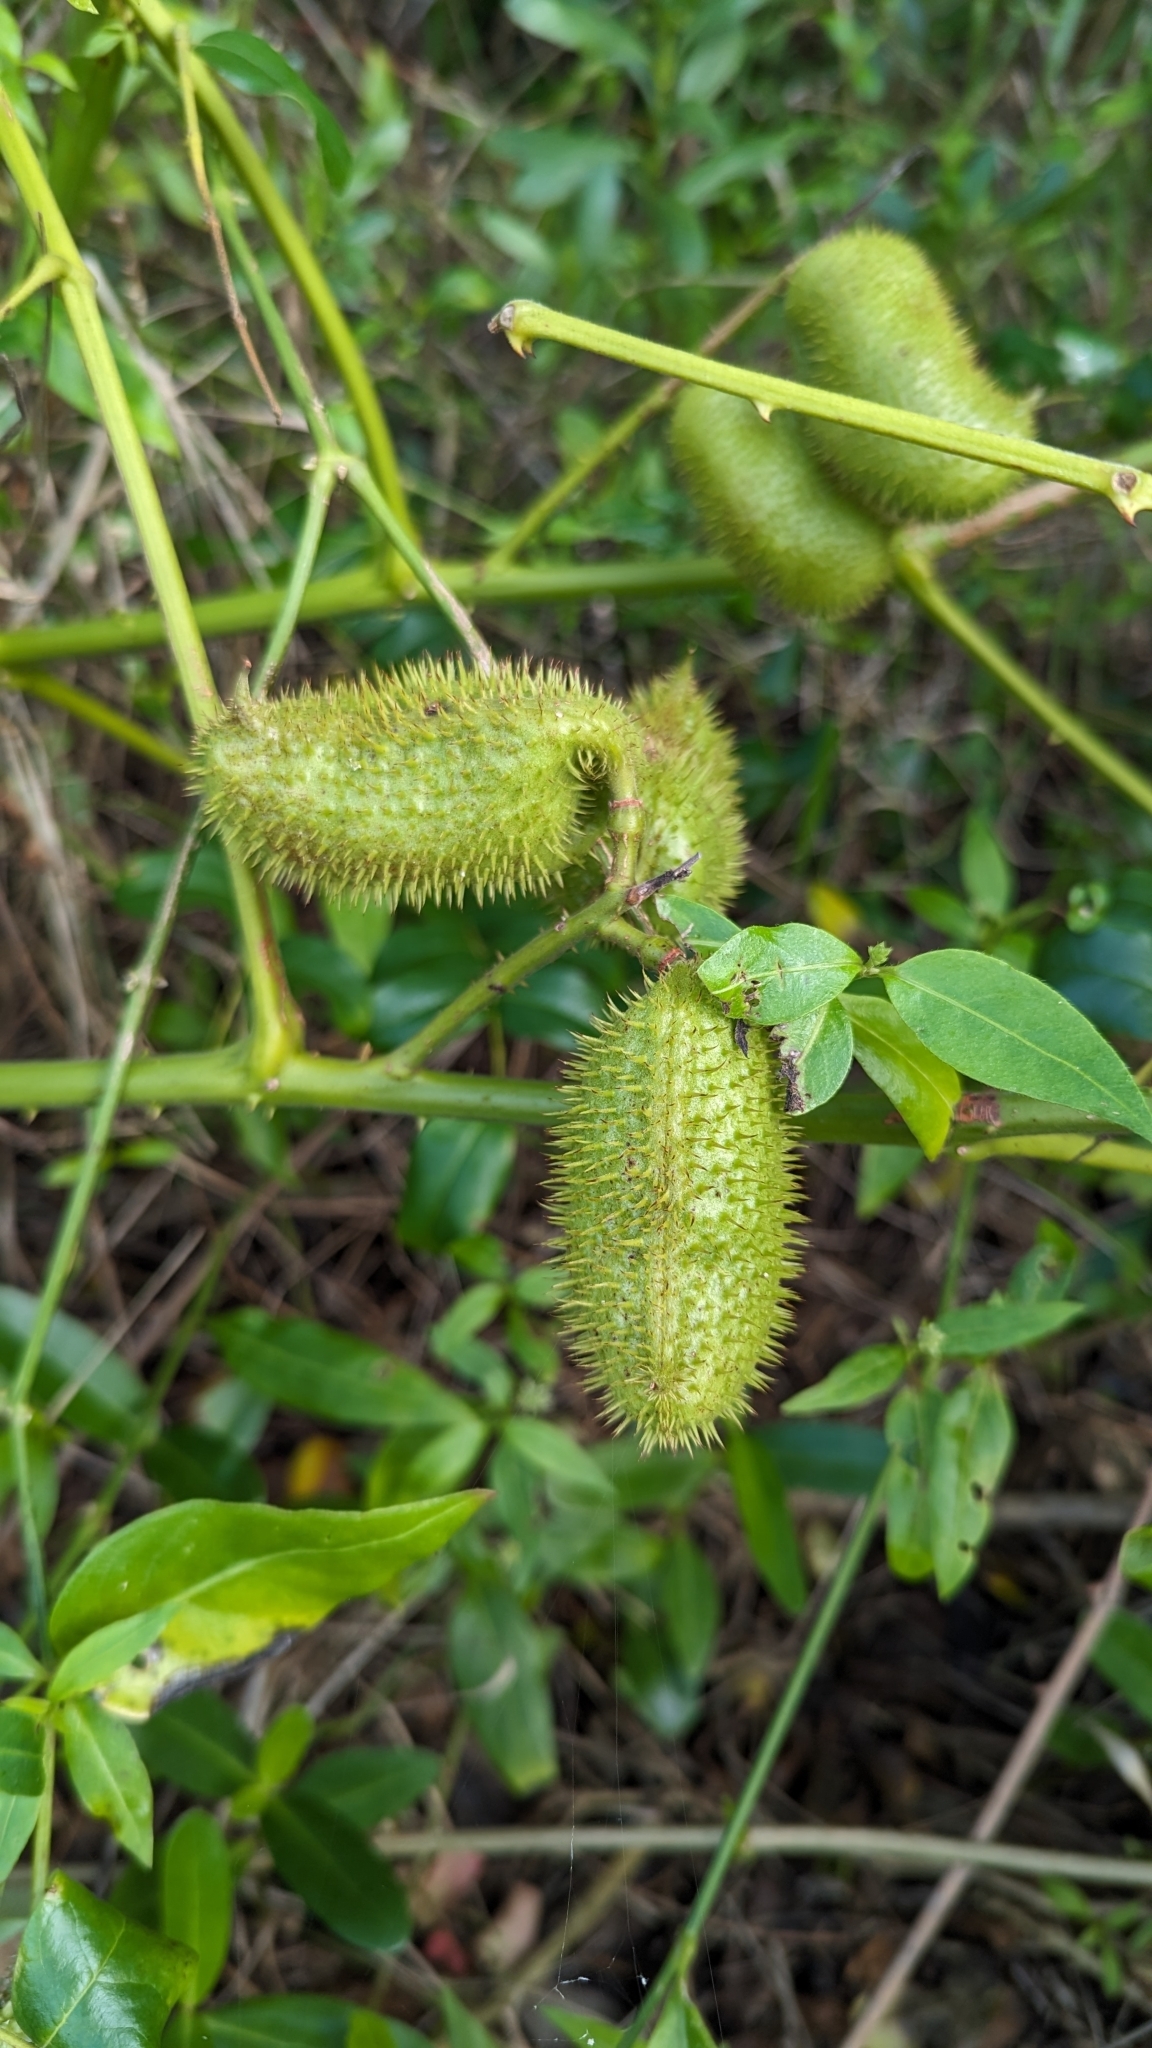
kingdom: Plantae
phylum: Tracheophyta
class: Magnoliopsida
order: Fabales
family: Fabaceae
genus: Guilandina
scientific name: Guilandina bonduc
